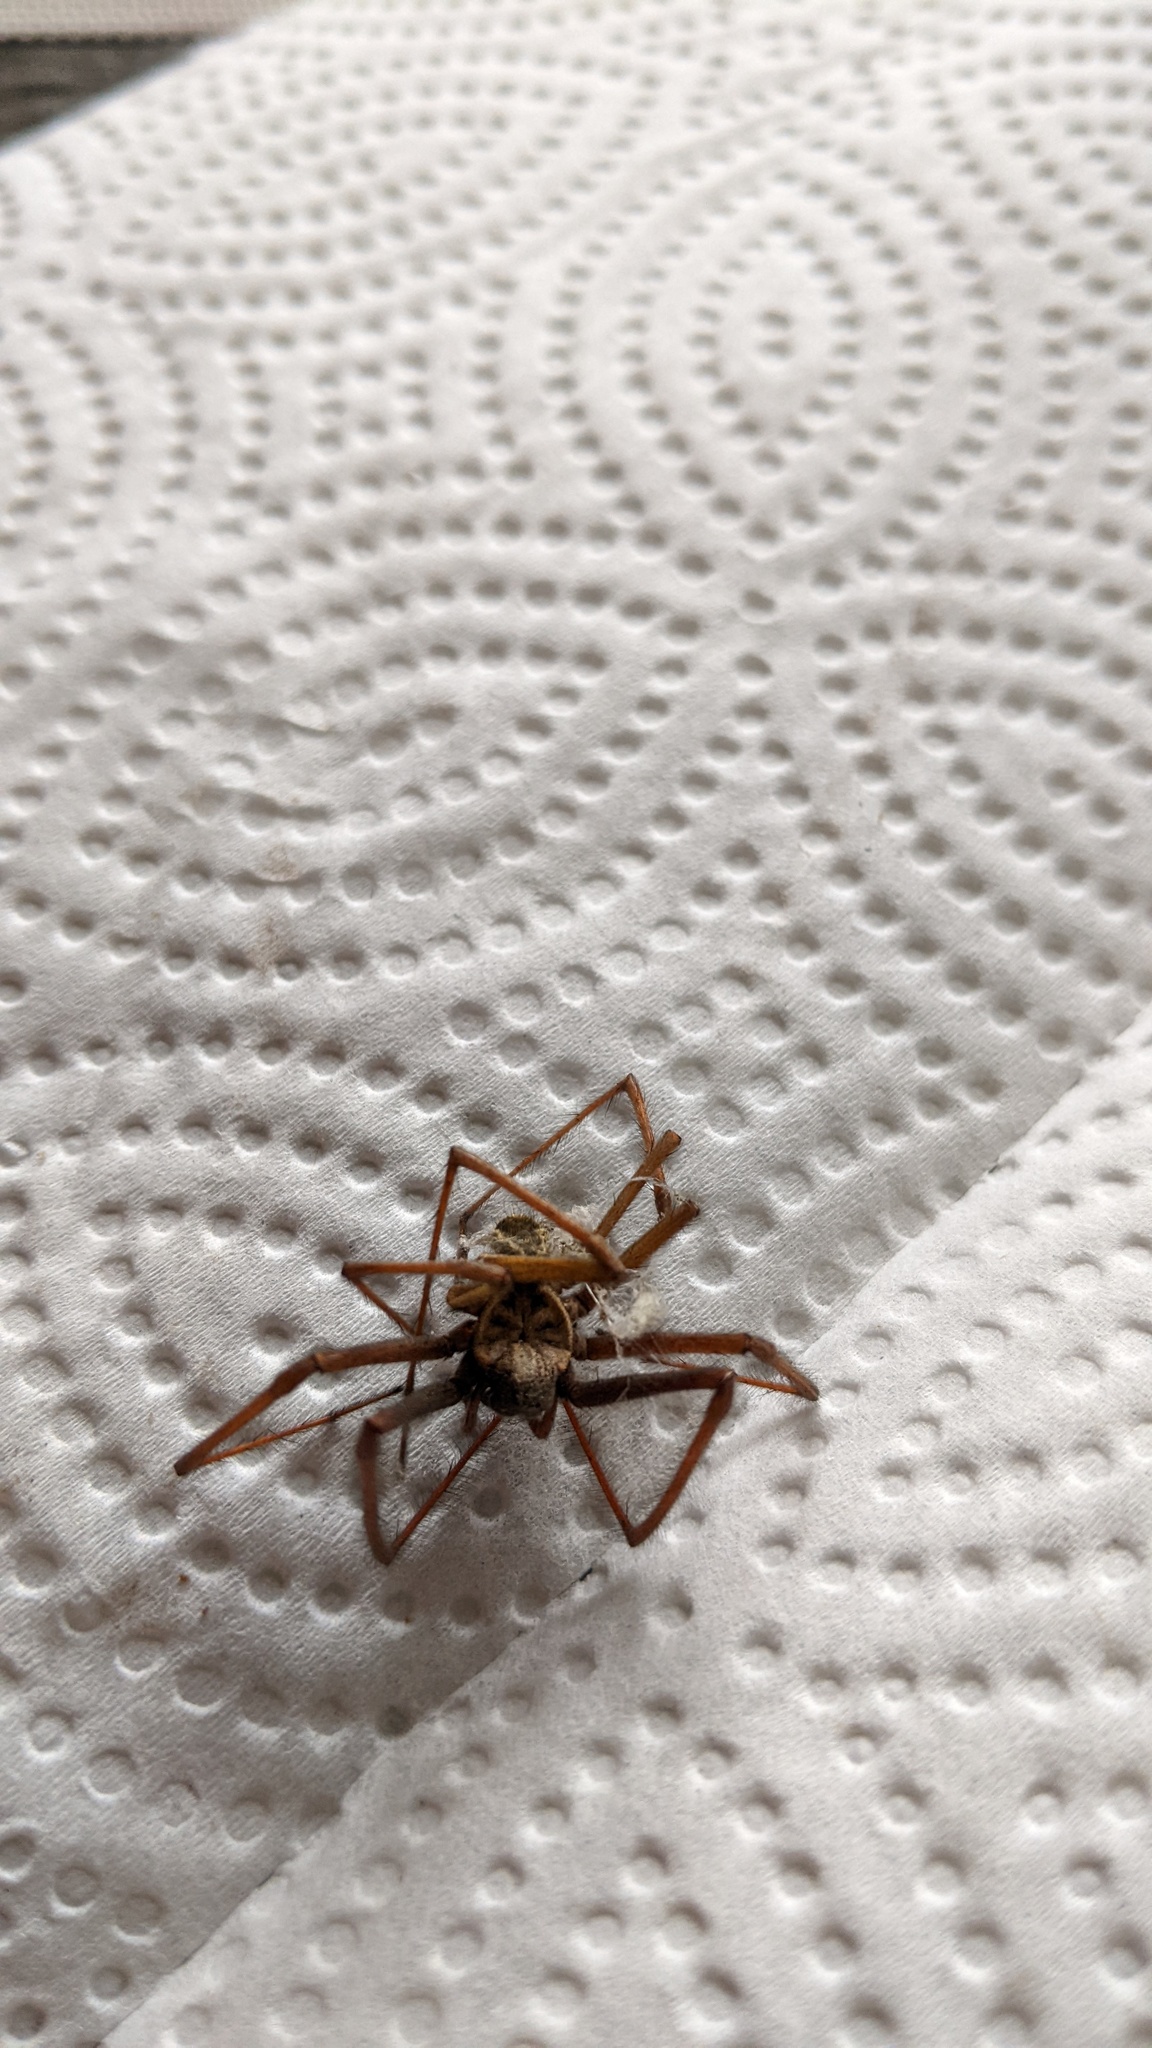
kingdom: Animalia
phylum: Arthropoda
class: Arachnida
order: Araneae
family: Agelenidae
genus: Eratigena
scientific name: Eratigena atrica
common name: Giant house spider
